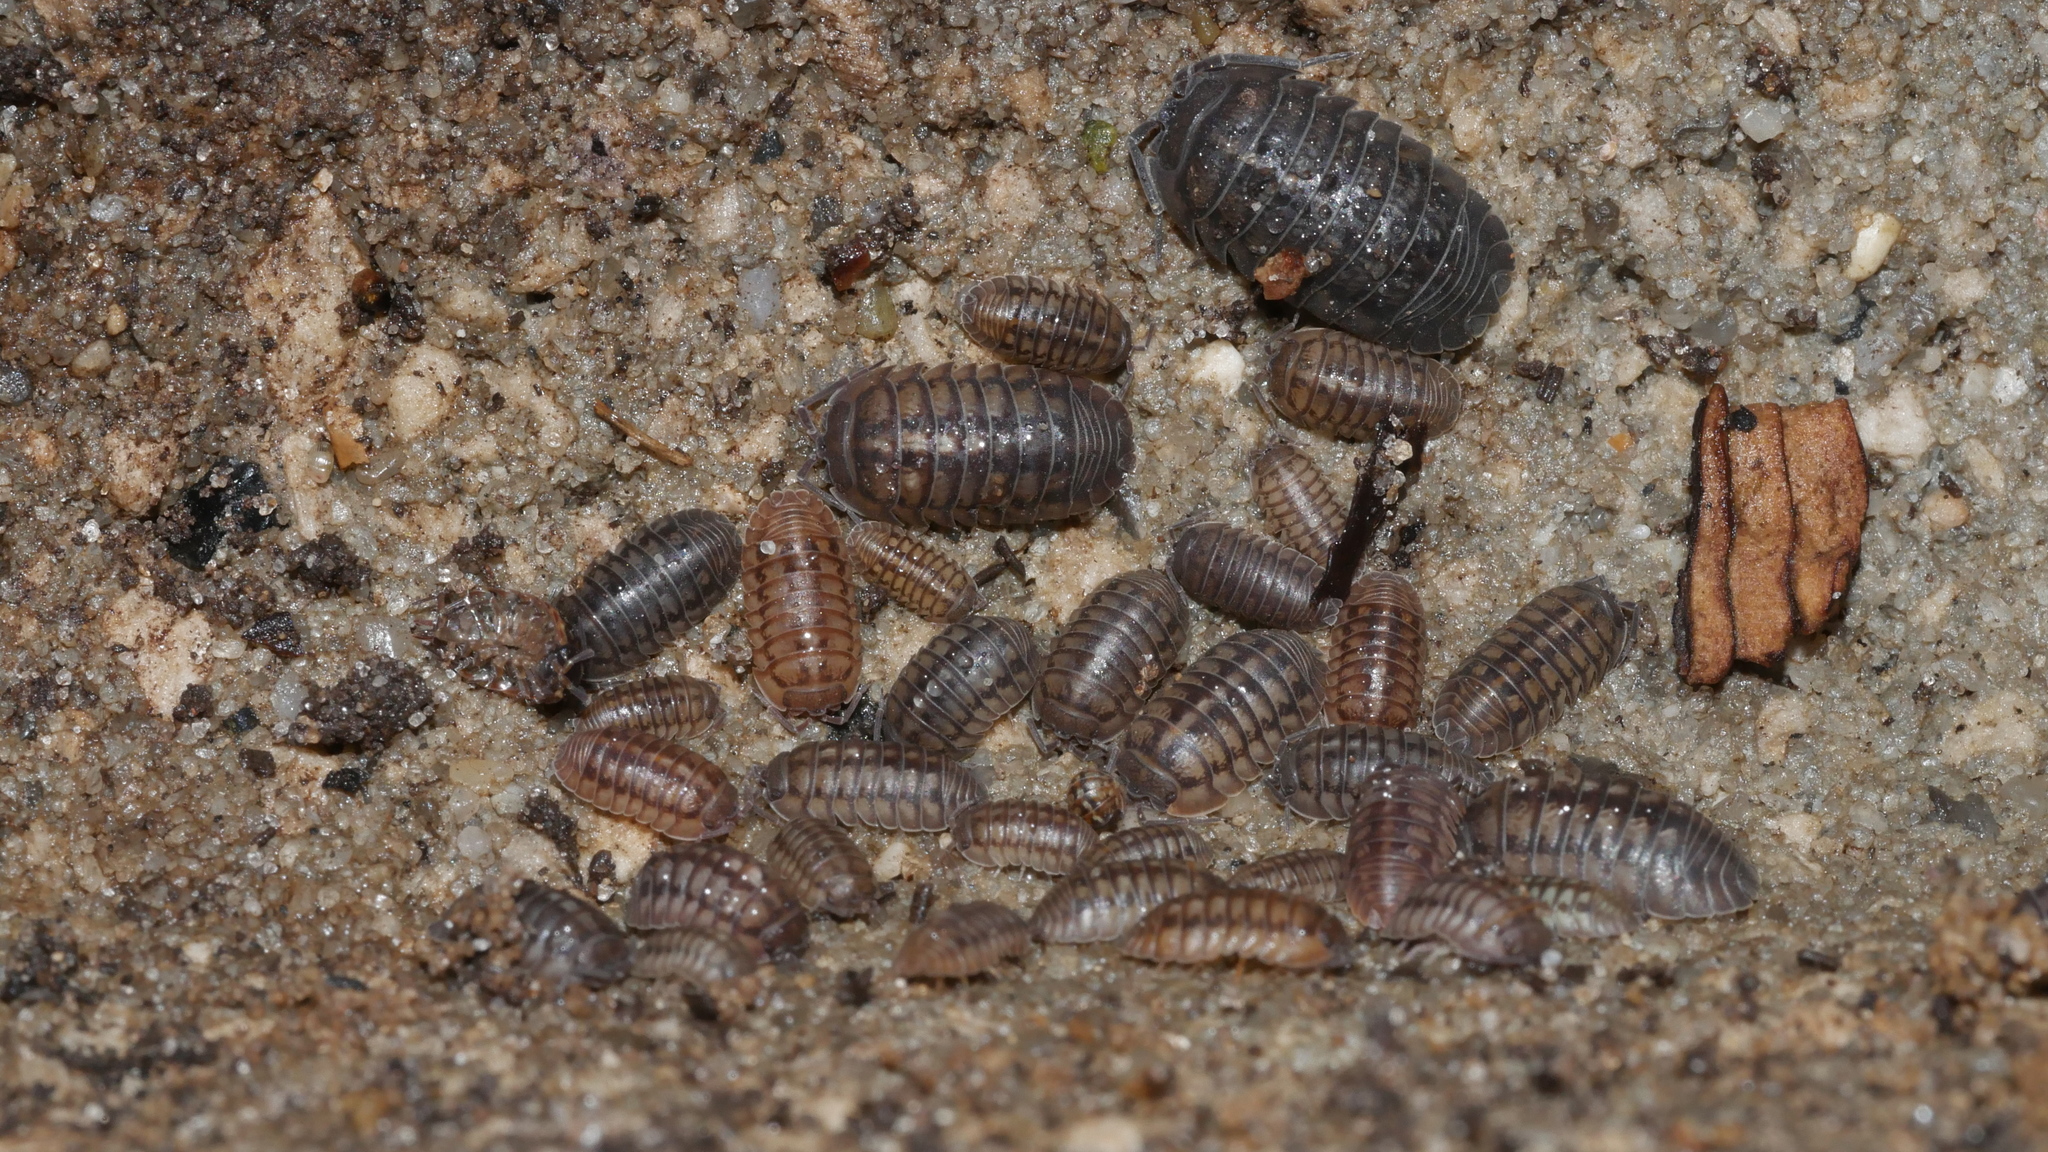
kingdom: Animalia
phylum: Arthropoda
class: Malacostraca
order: Isopoda
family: Armadillidiidae
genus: Armadillidium
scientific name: Armadillidium nasatum
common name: Isopod
